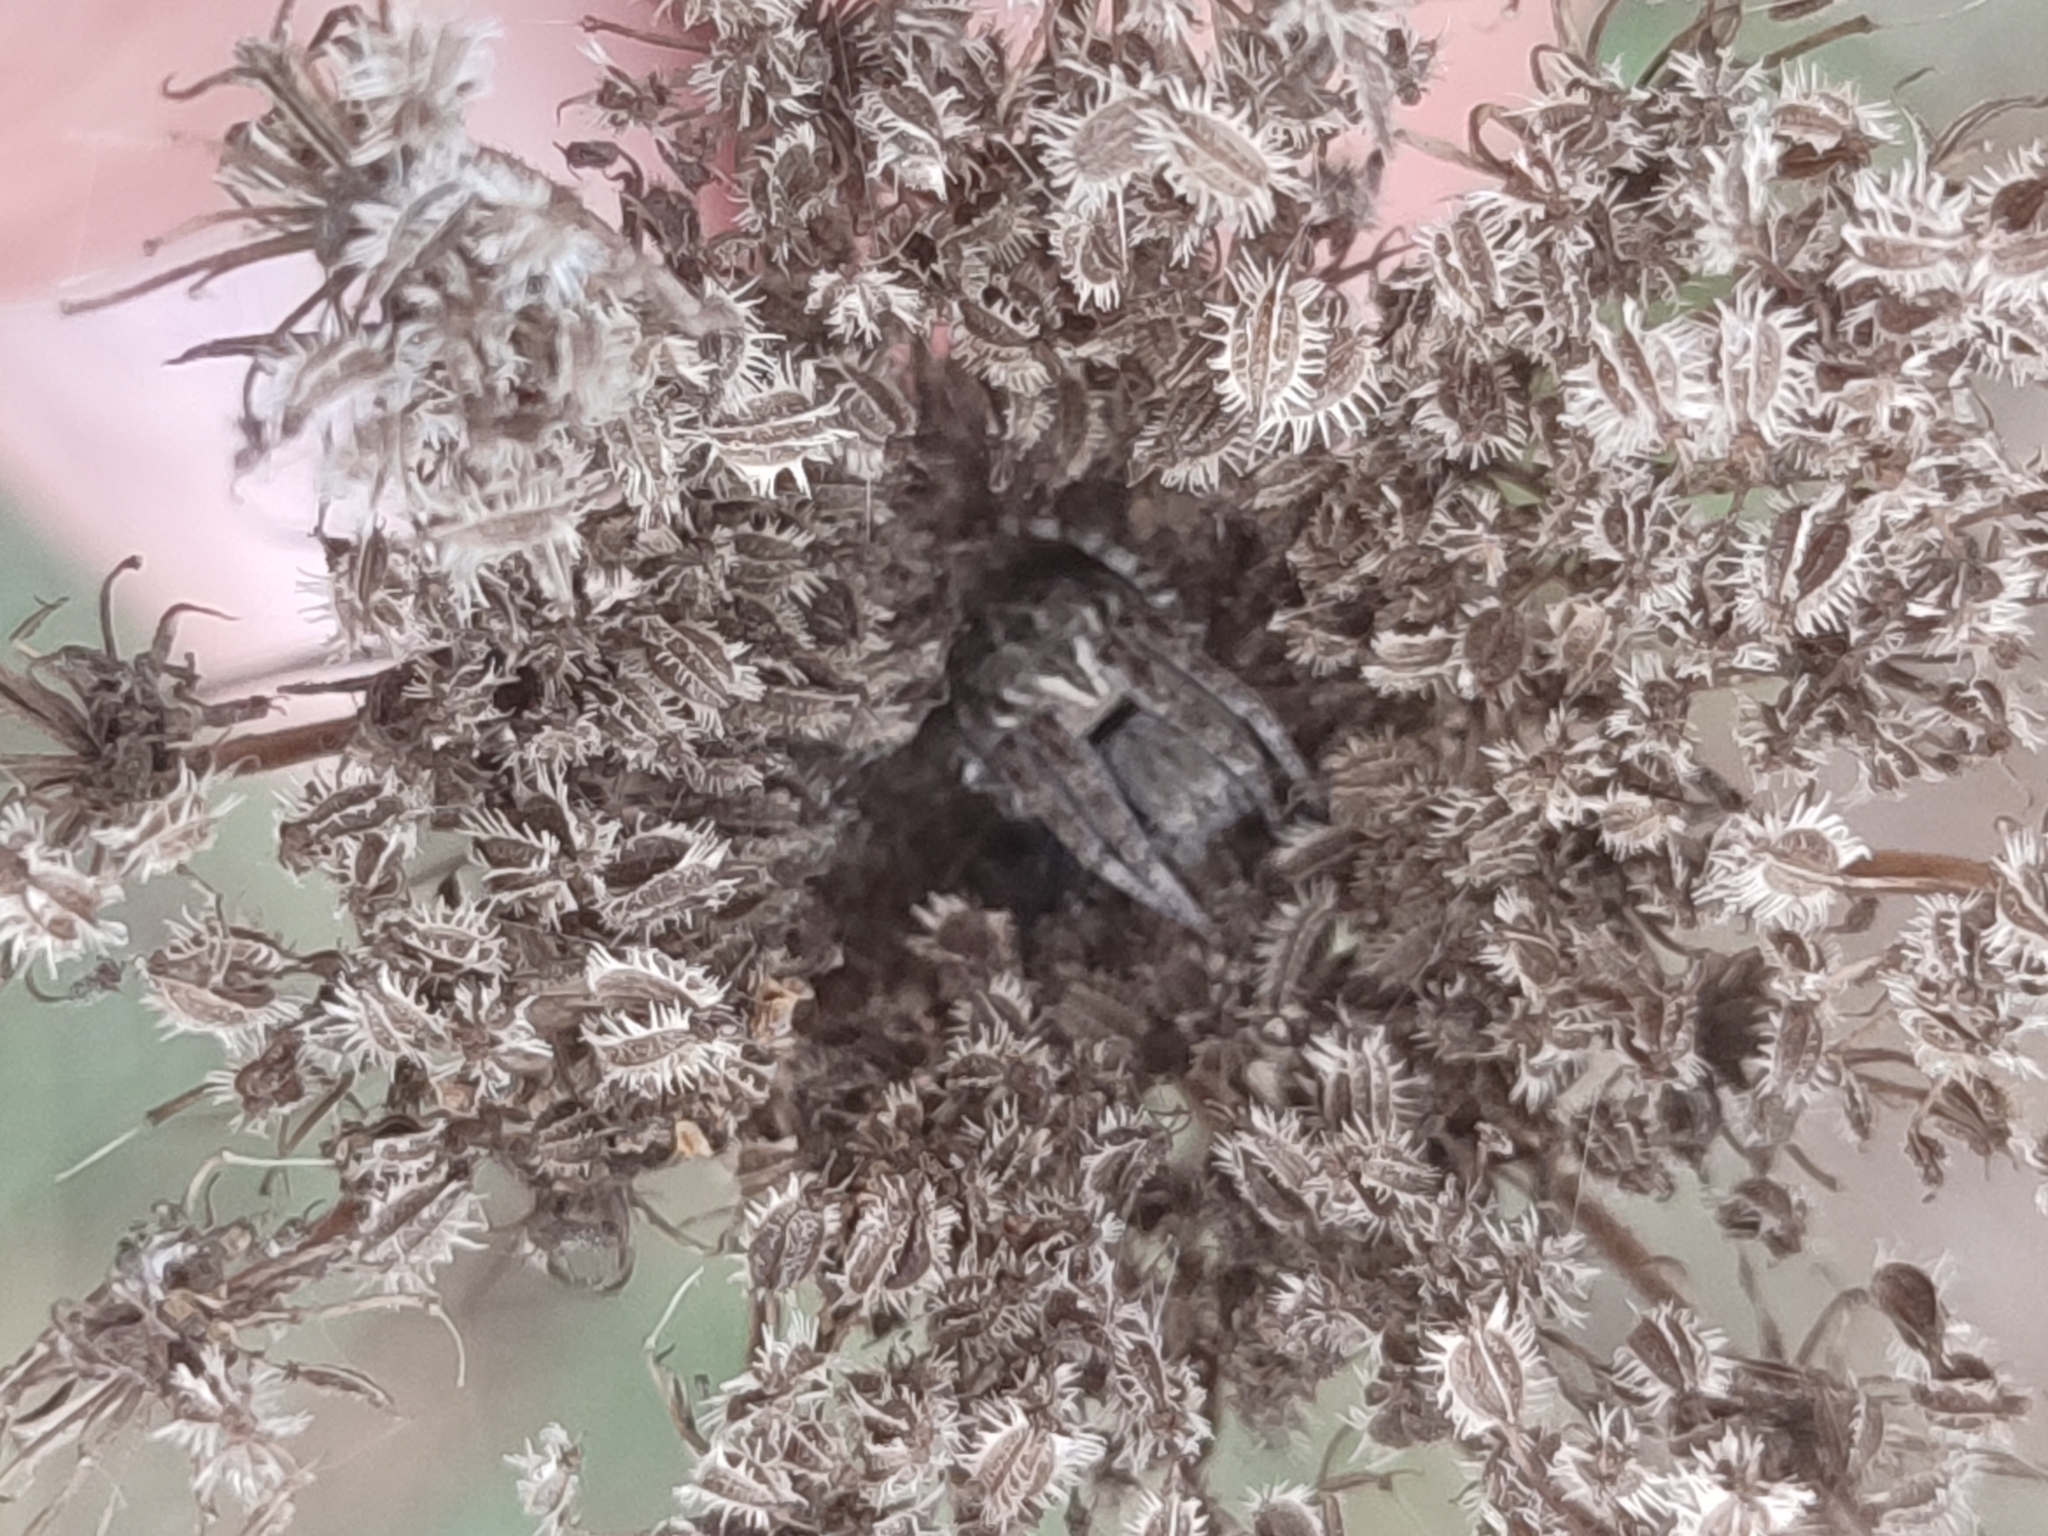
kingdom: Plantae
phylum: Tracheophyta
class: Magnoliopsida
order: Apiales
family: Apiaceae
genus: Daucus
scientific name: Daucus carota
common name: Wild carrot
